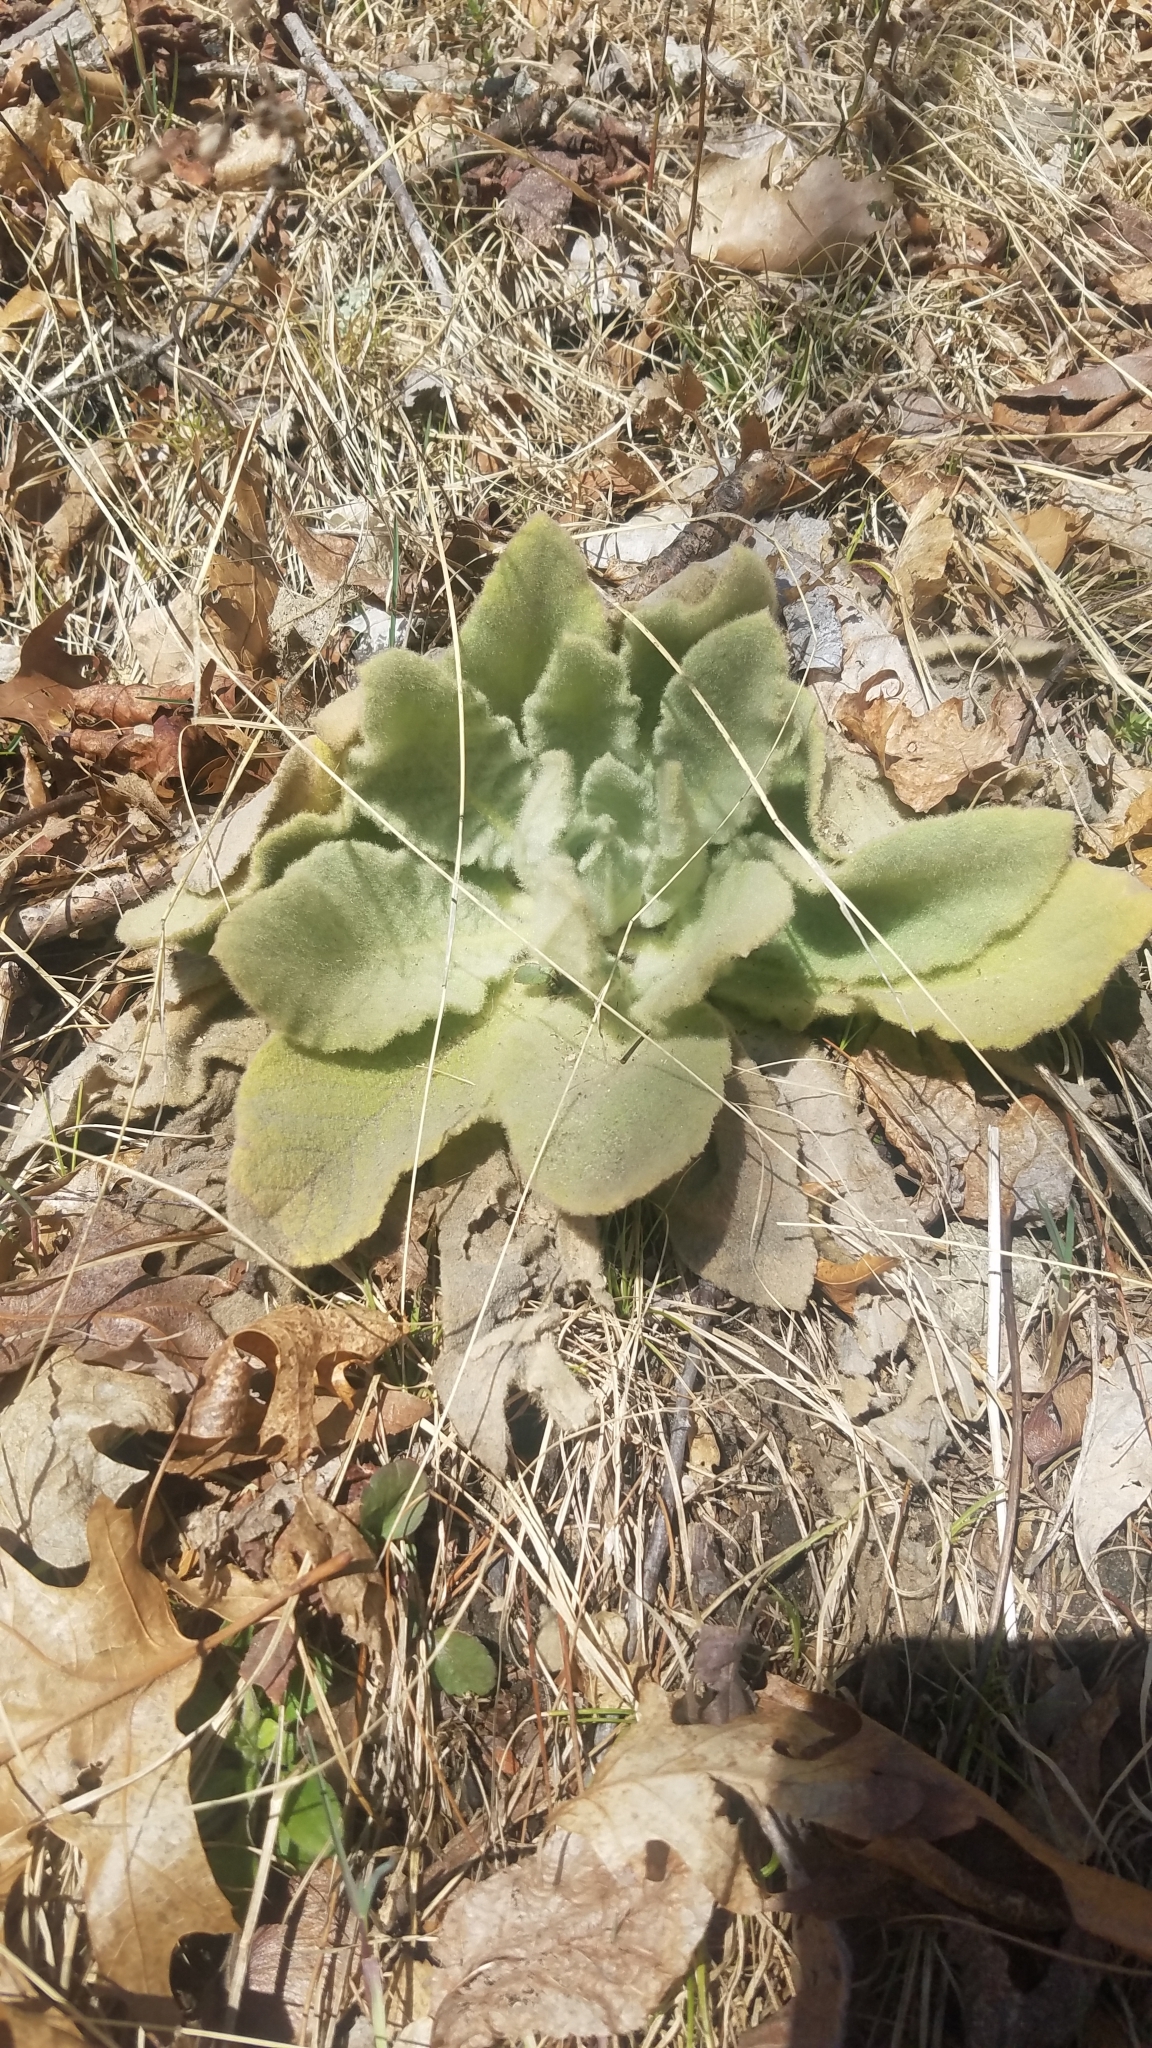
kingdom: Plantae
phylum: Tracheophyta
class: Magnoliopsida
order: Lamiales
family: Scrophulariaceae
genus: Verbascum
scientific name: Verbascum thapsus
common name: Common mullein
